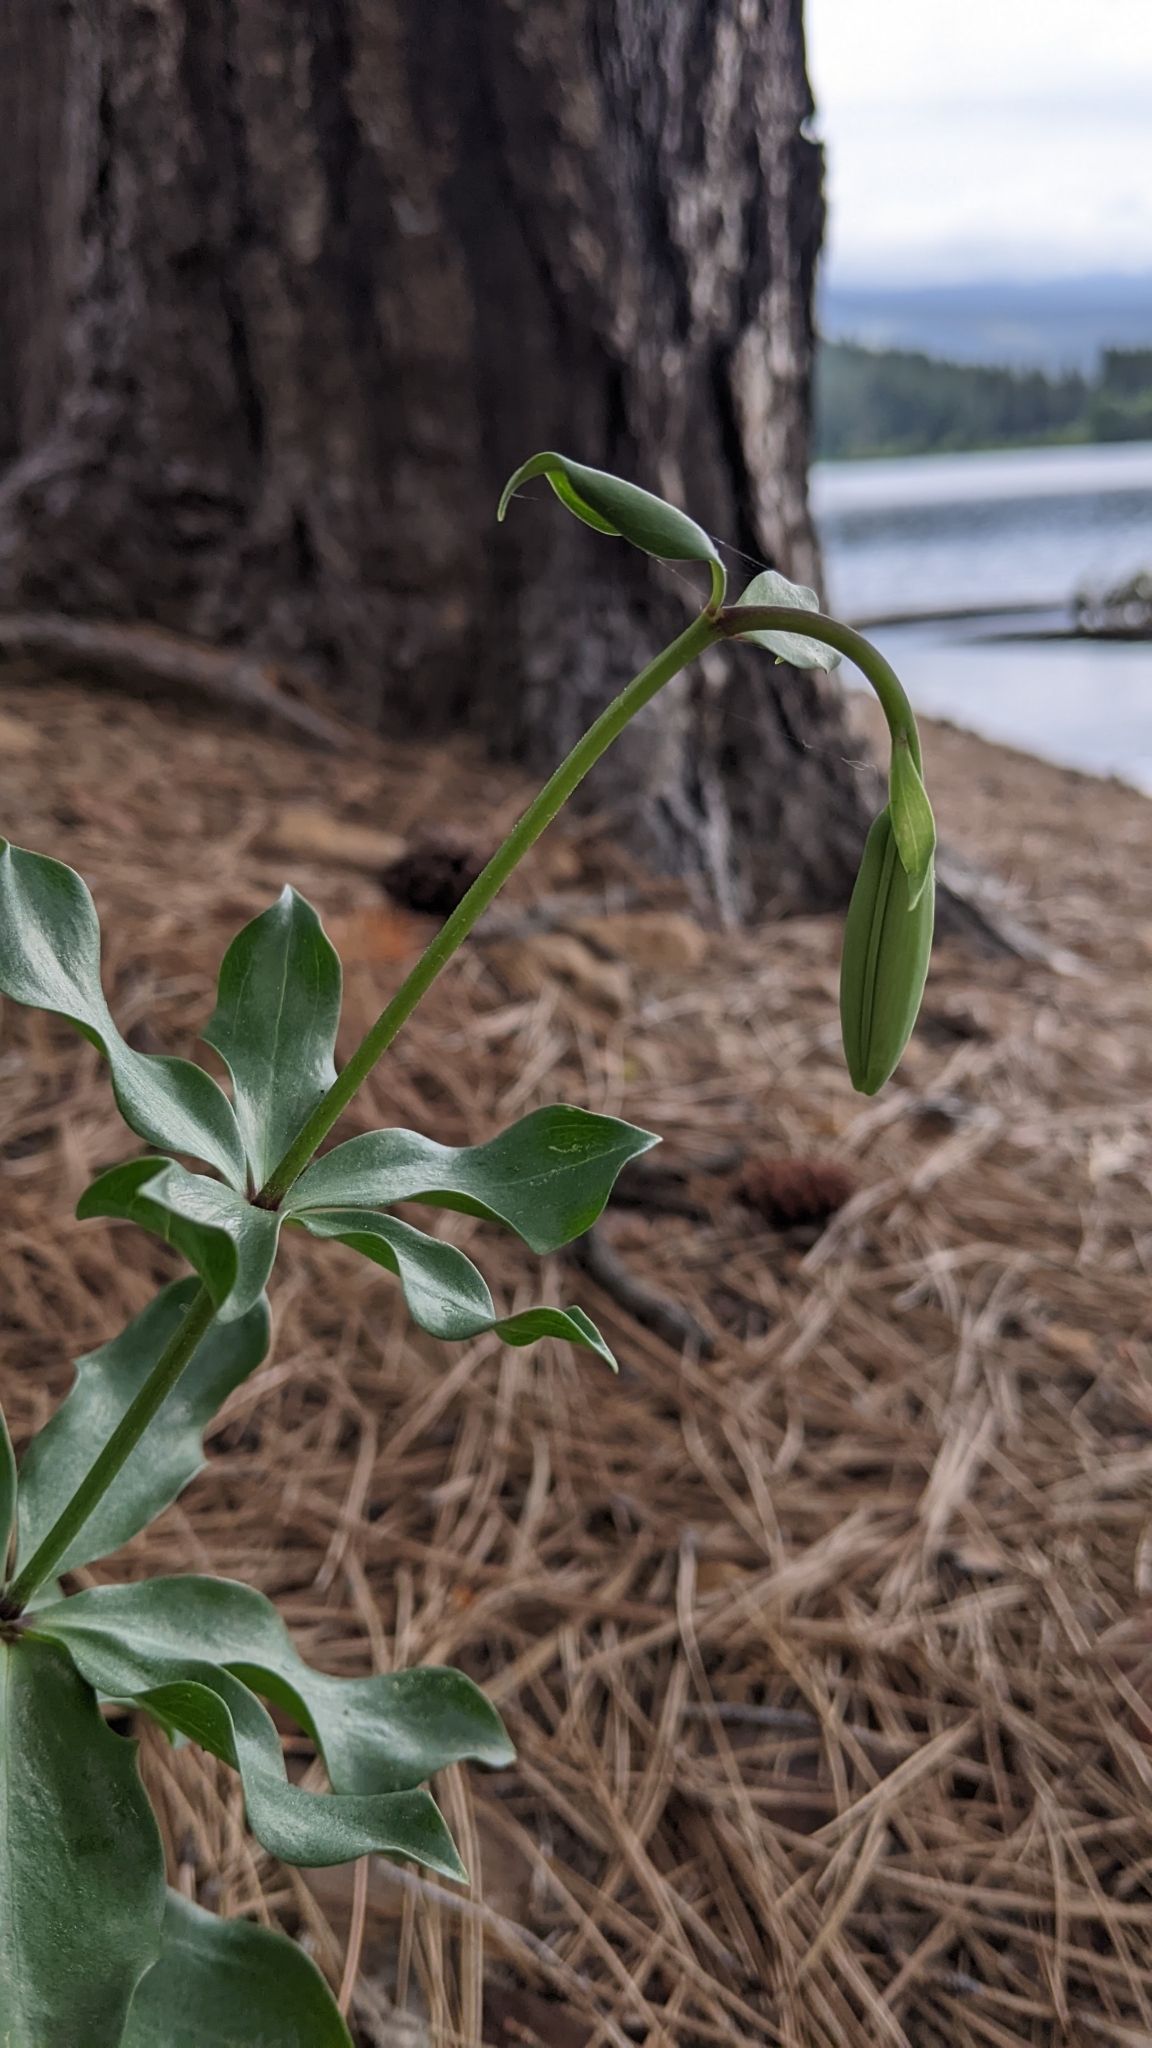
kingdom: Plantae
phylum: Tracheophyta
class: Liliopsida
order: Liliales
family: Liliaceae
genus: Lilium
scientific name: Lilium washingtonianum
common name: Washington lily
